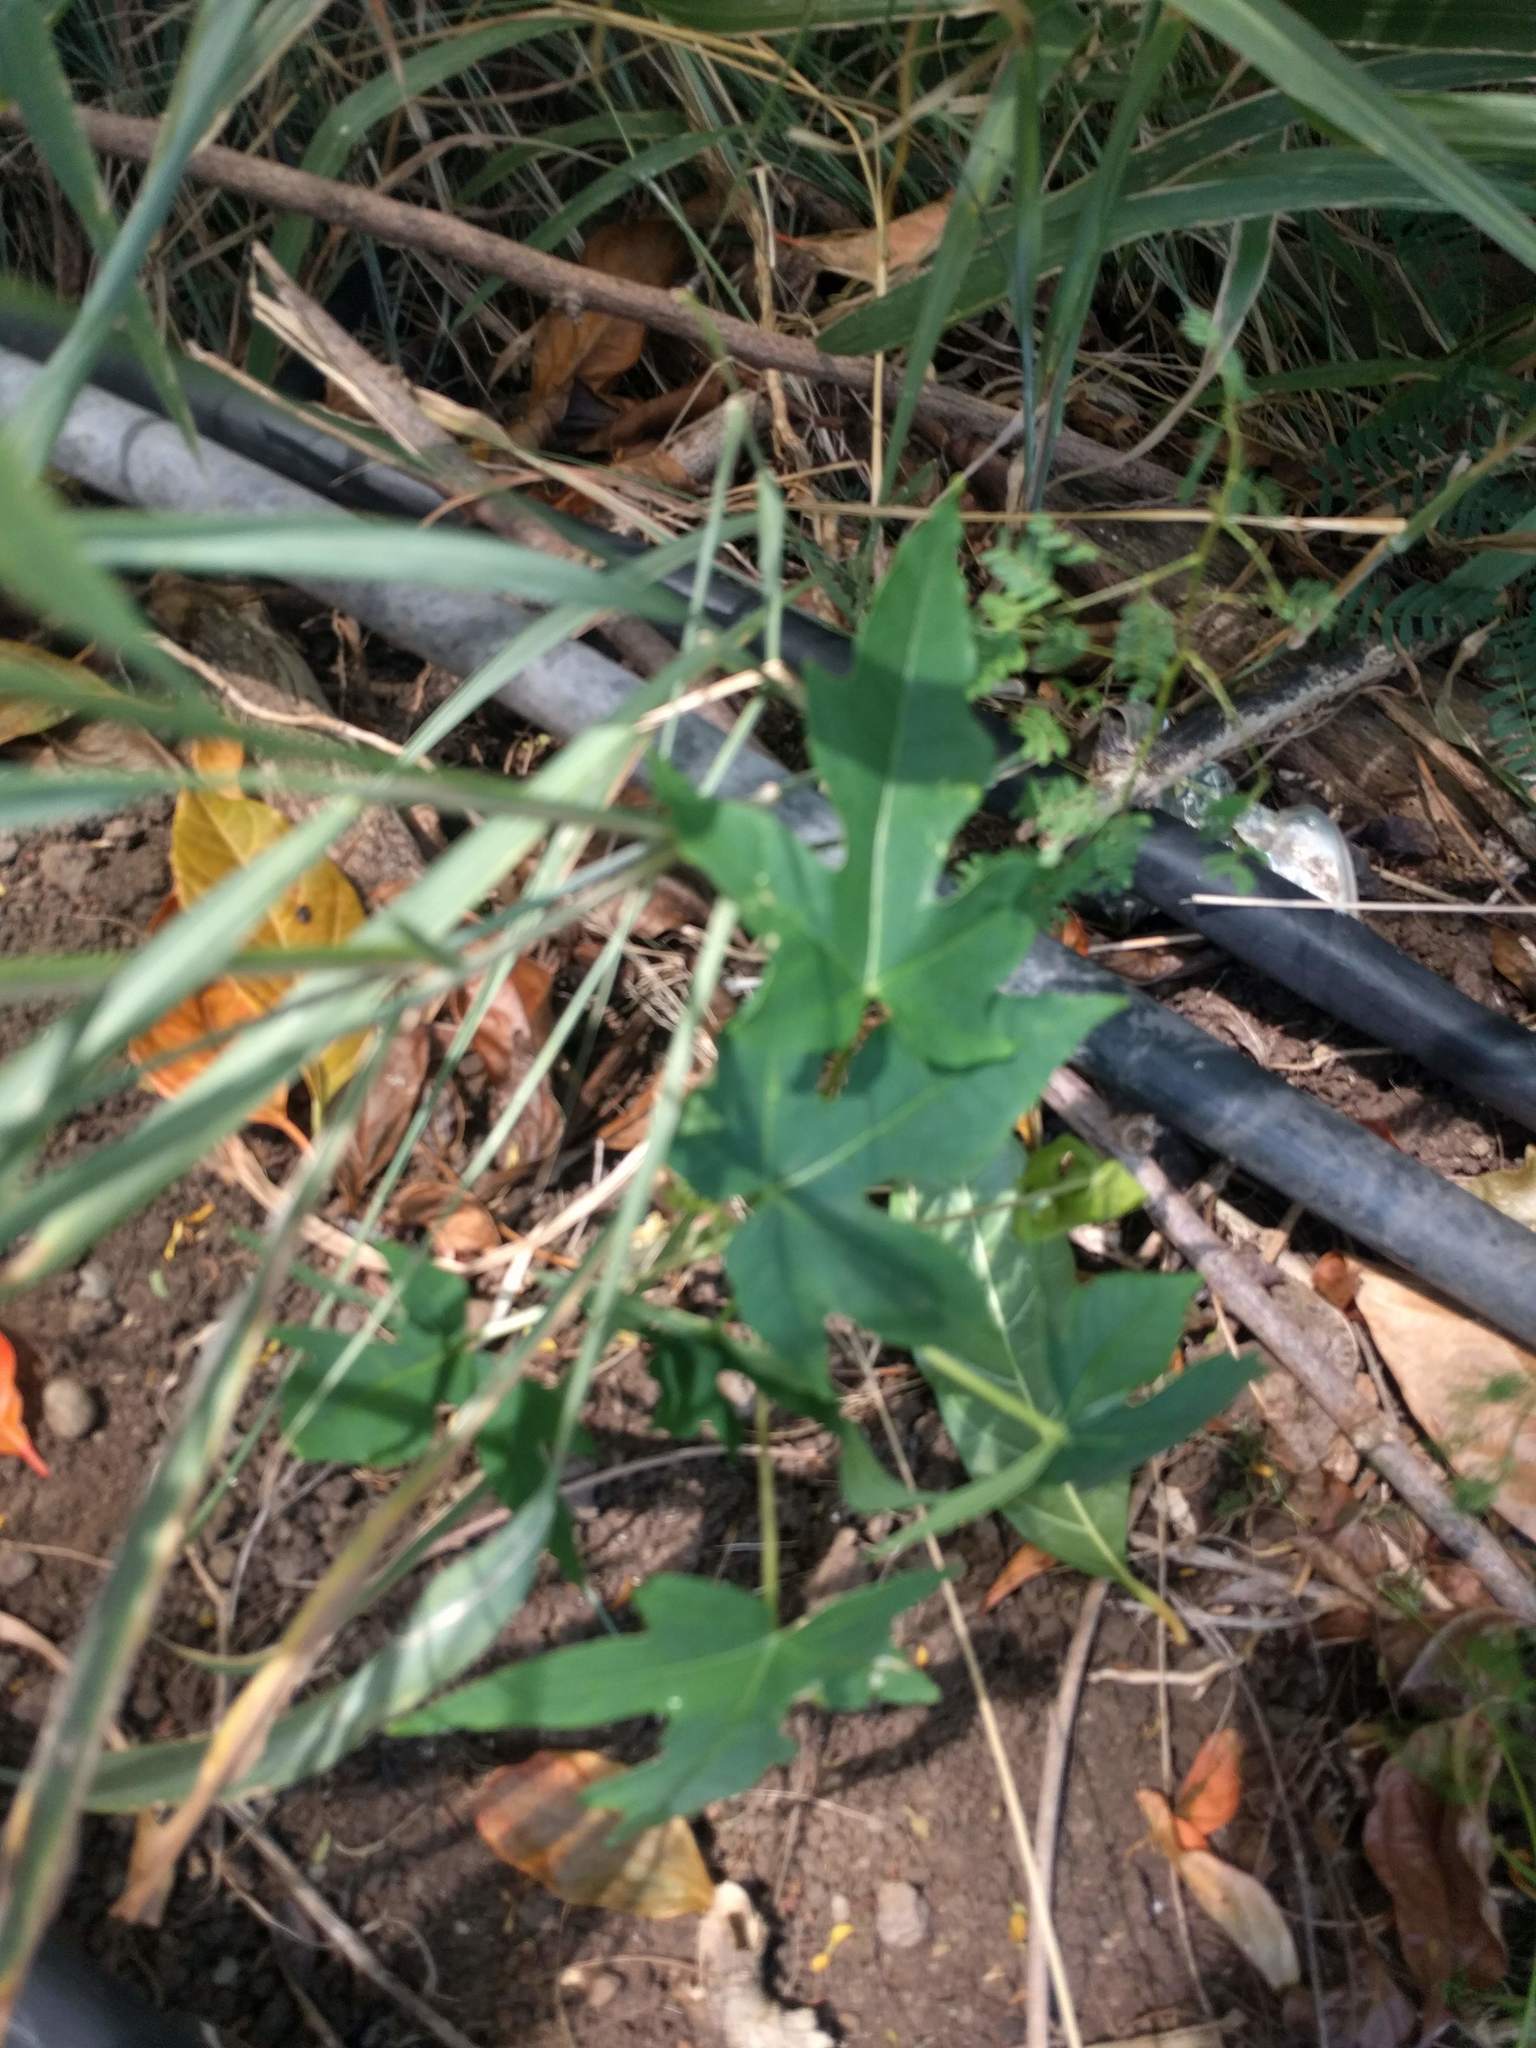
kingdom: Plantae
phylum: Tracheophyta
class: Magnoliopsida
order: Brassicales
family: Caricaceae
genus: Carica
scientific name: Carica papaya
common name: Papaya
